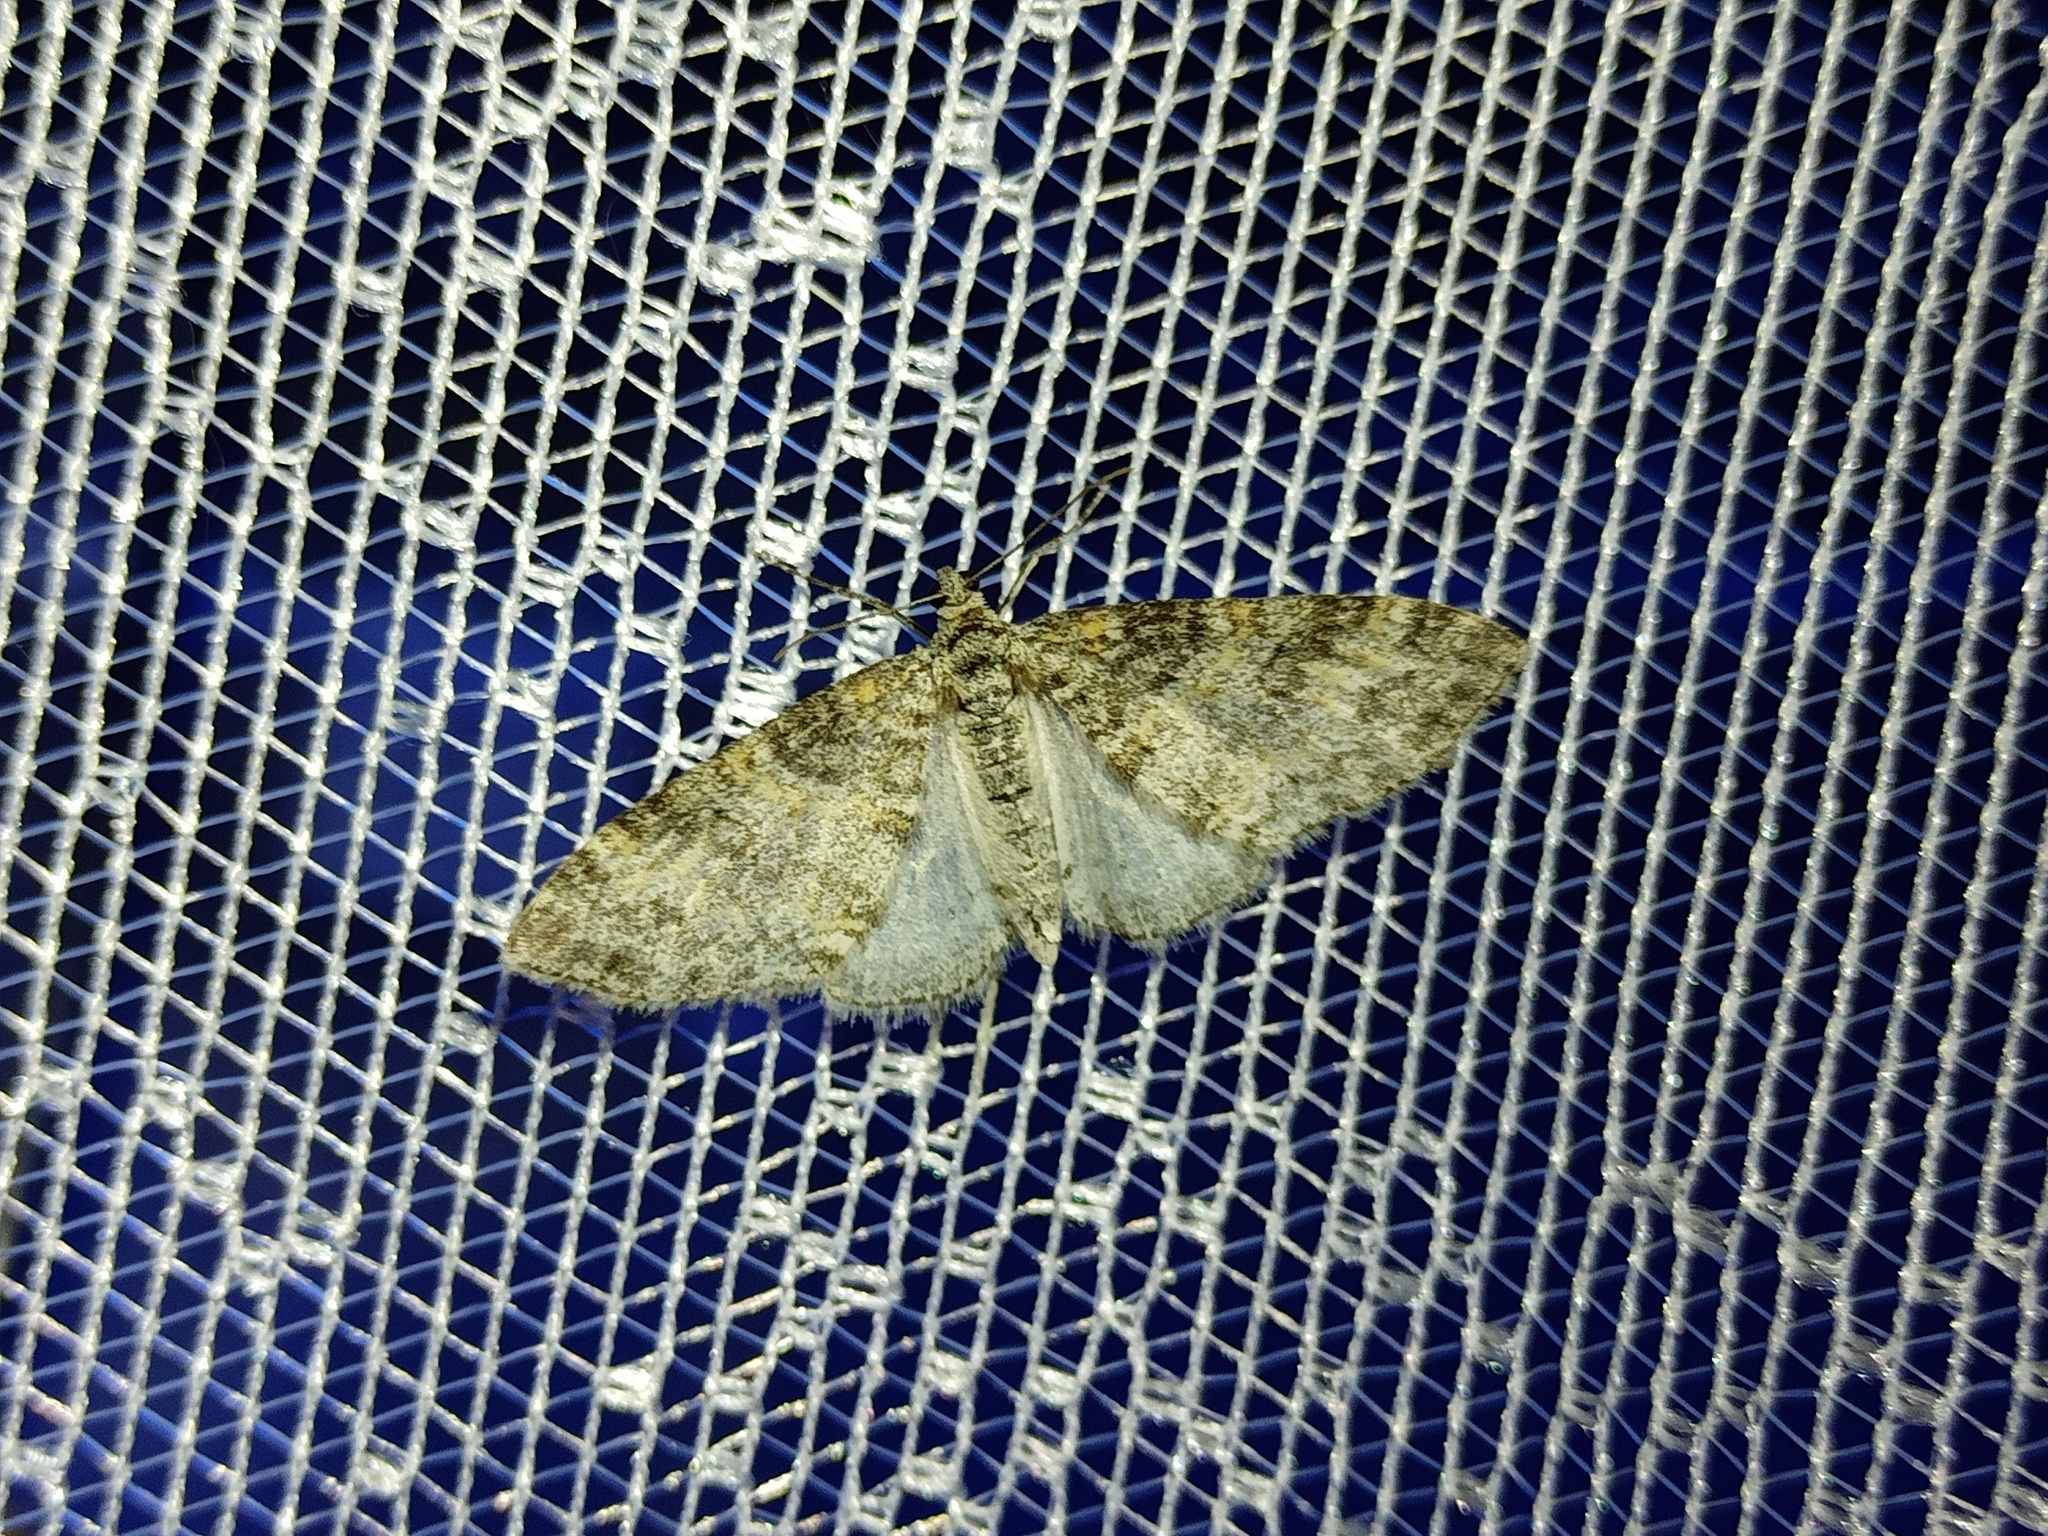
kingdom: Animalia
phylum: Arthropoda
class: Insecta
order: Lepidoptera
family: Geometridae
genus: Lobophora
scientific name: Lobophora halterata
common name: Seraphim
